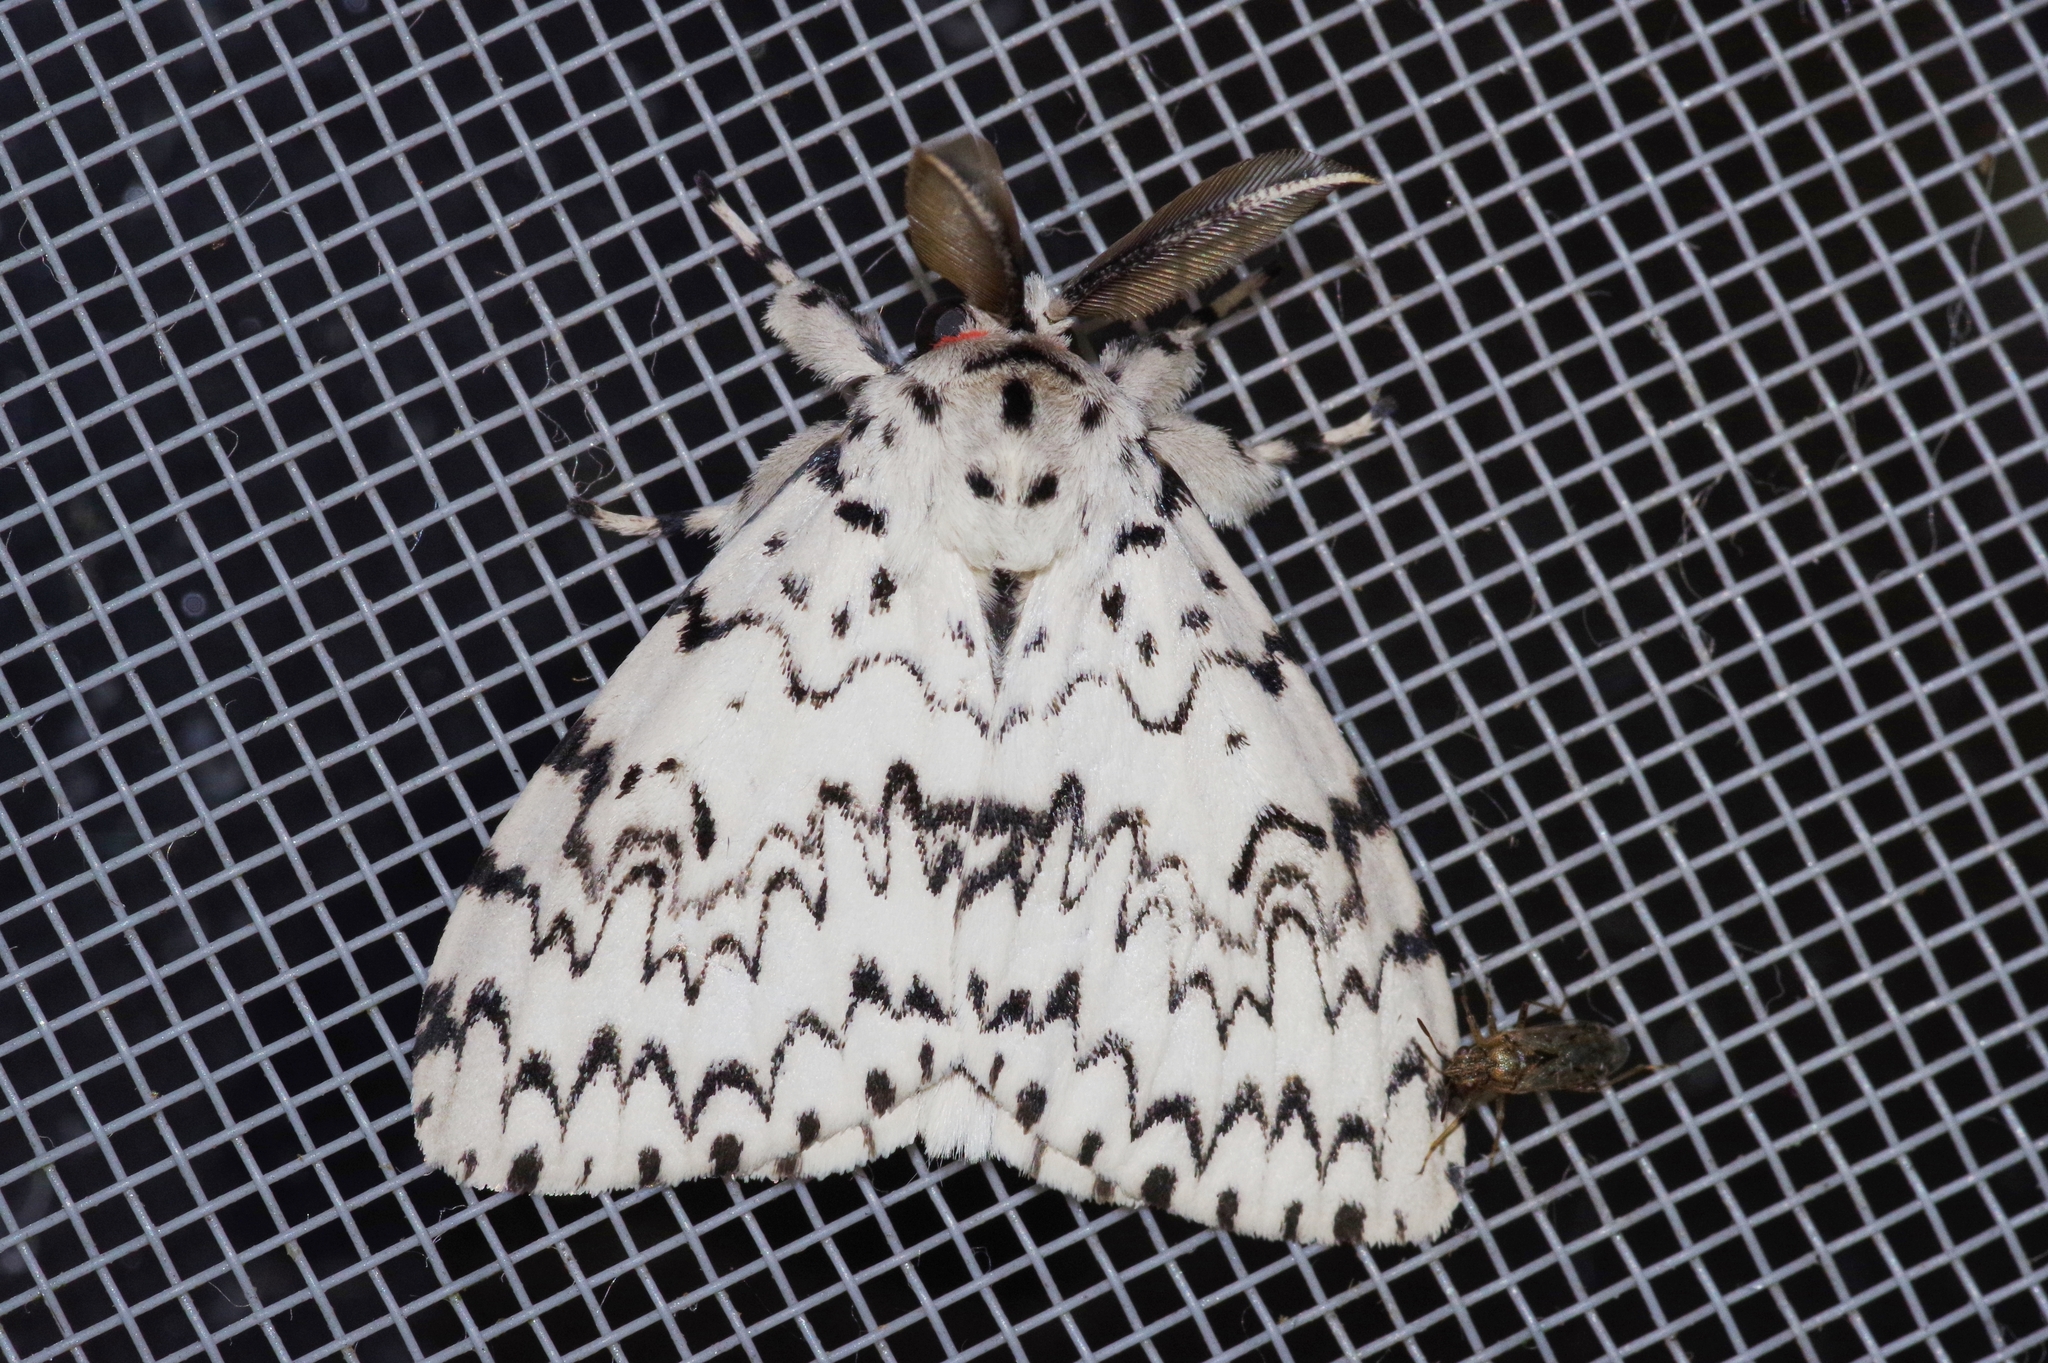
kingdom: Animalia
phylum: Arthropoda
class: Insecta
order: Lepidoptera
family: Erebidae
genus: Lymantria
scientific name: Lymantria minomonis
